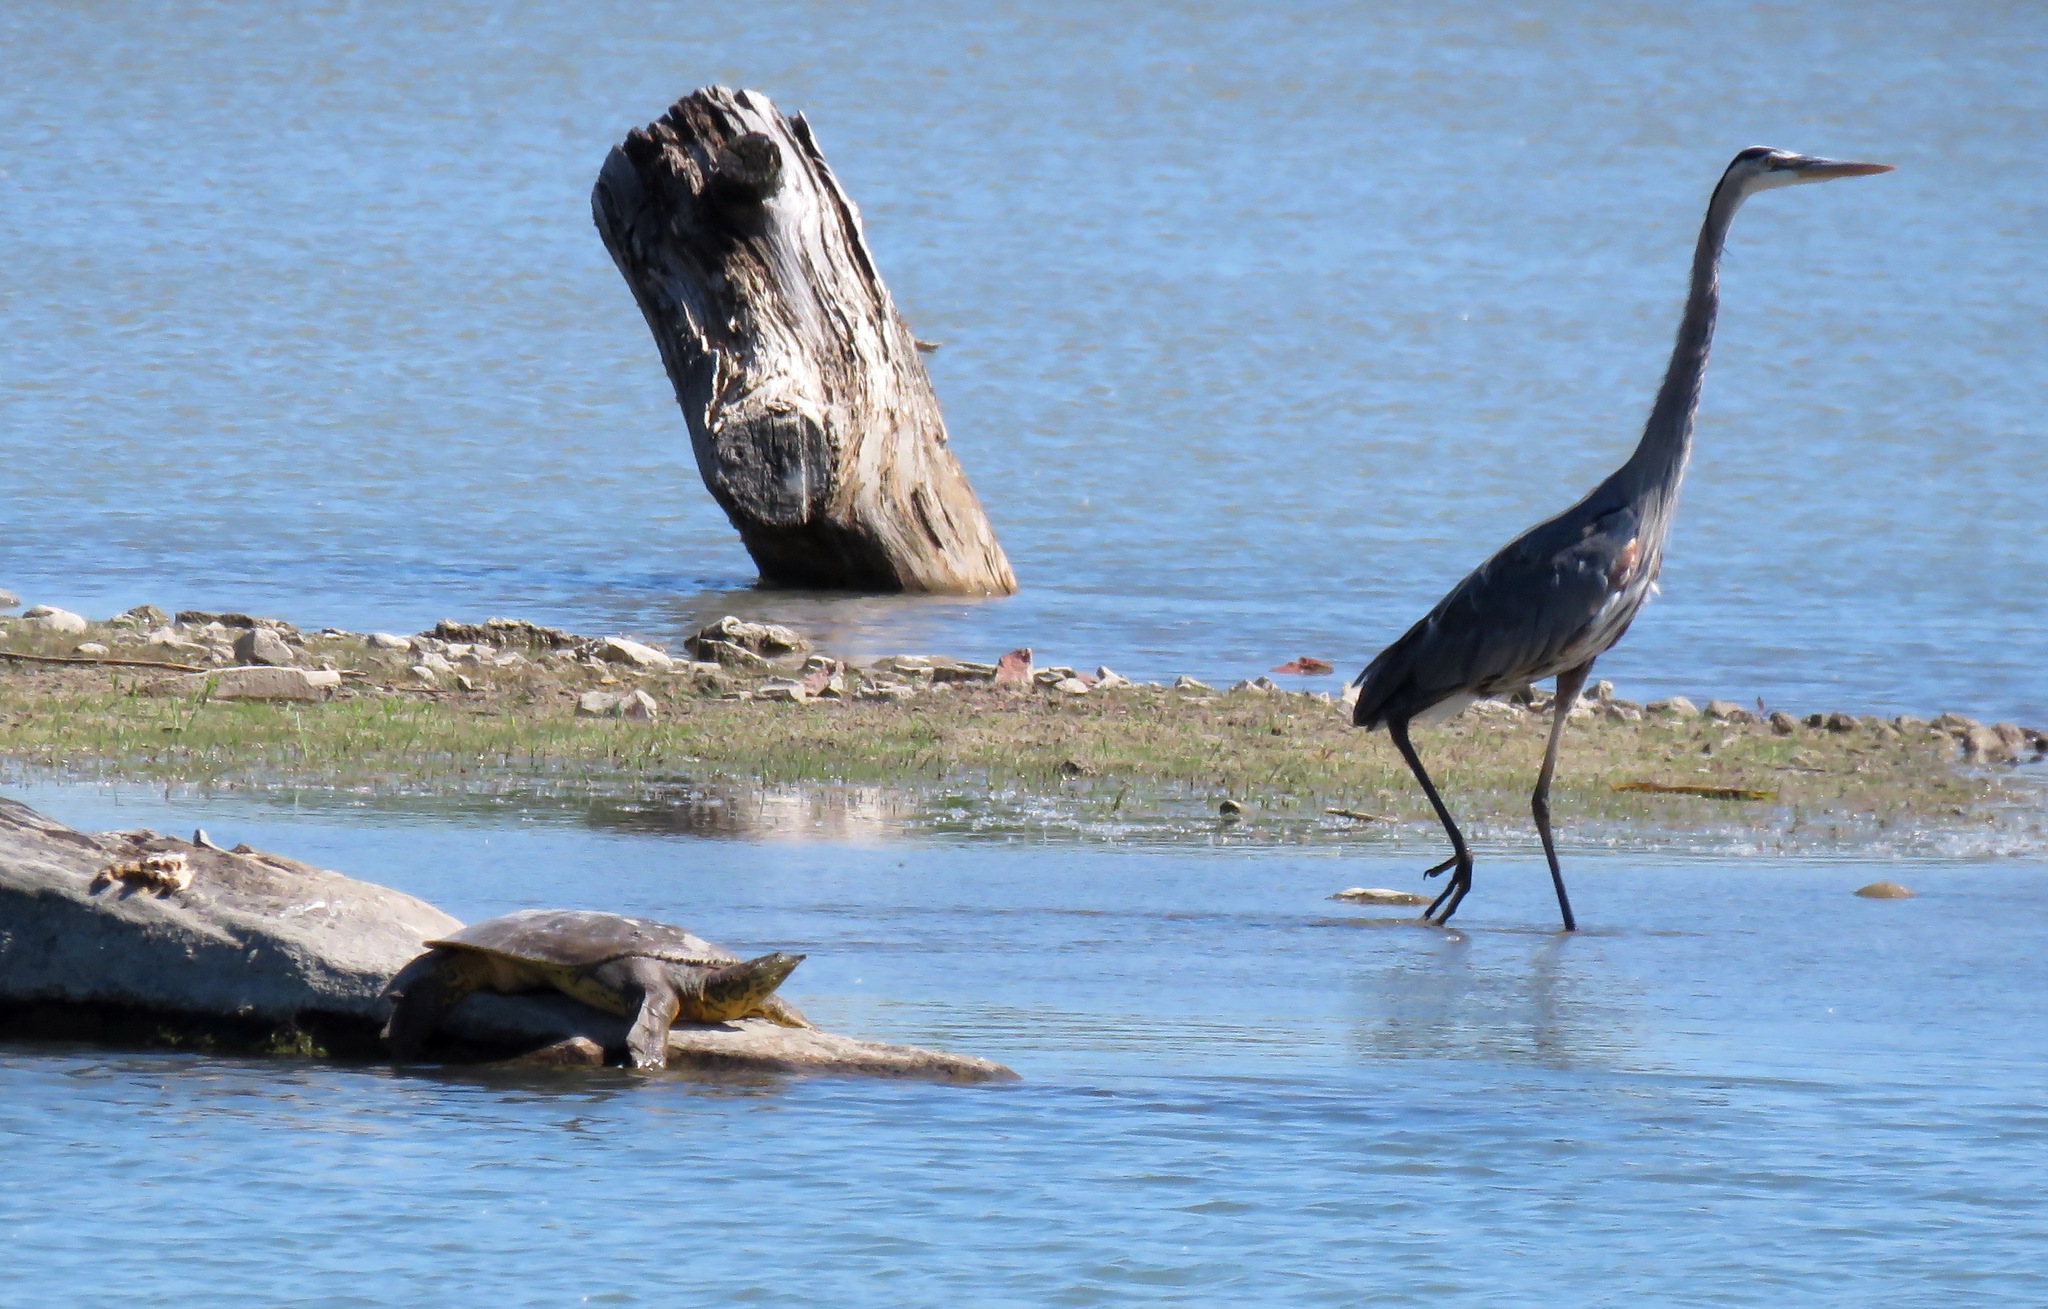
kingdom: Animalia
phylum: Chordata
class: Testudines
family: Trionychidae
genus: Apalone
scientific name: Apalone spinifera
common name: Spiny softshell turtle
